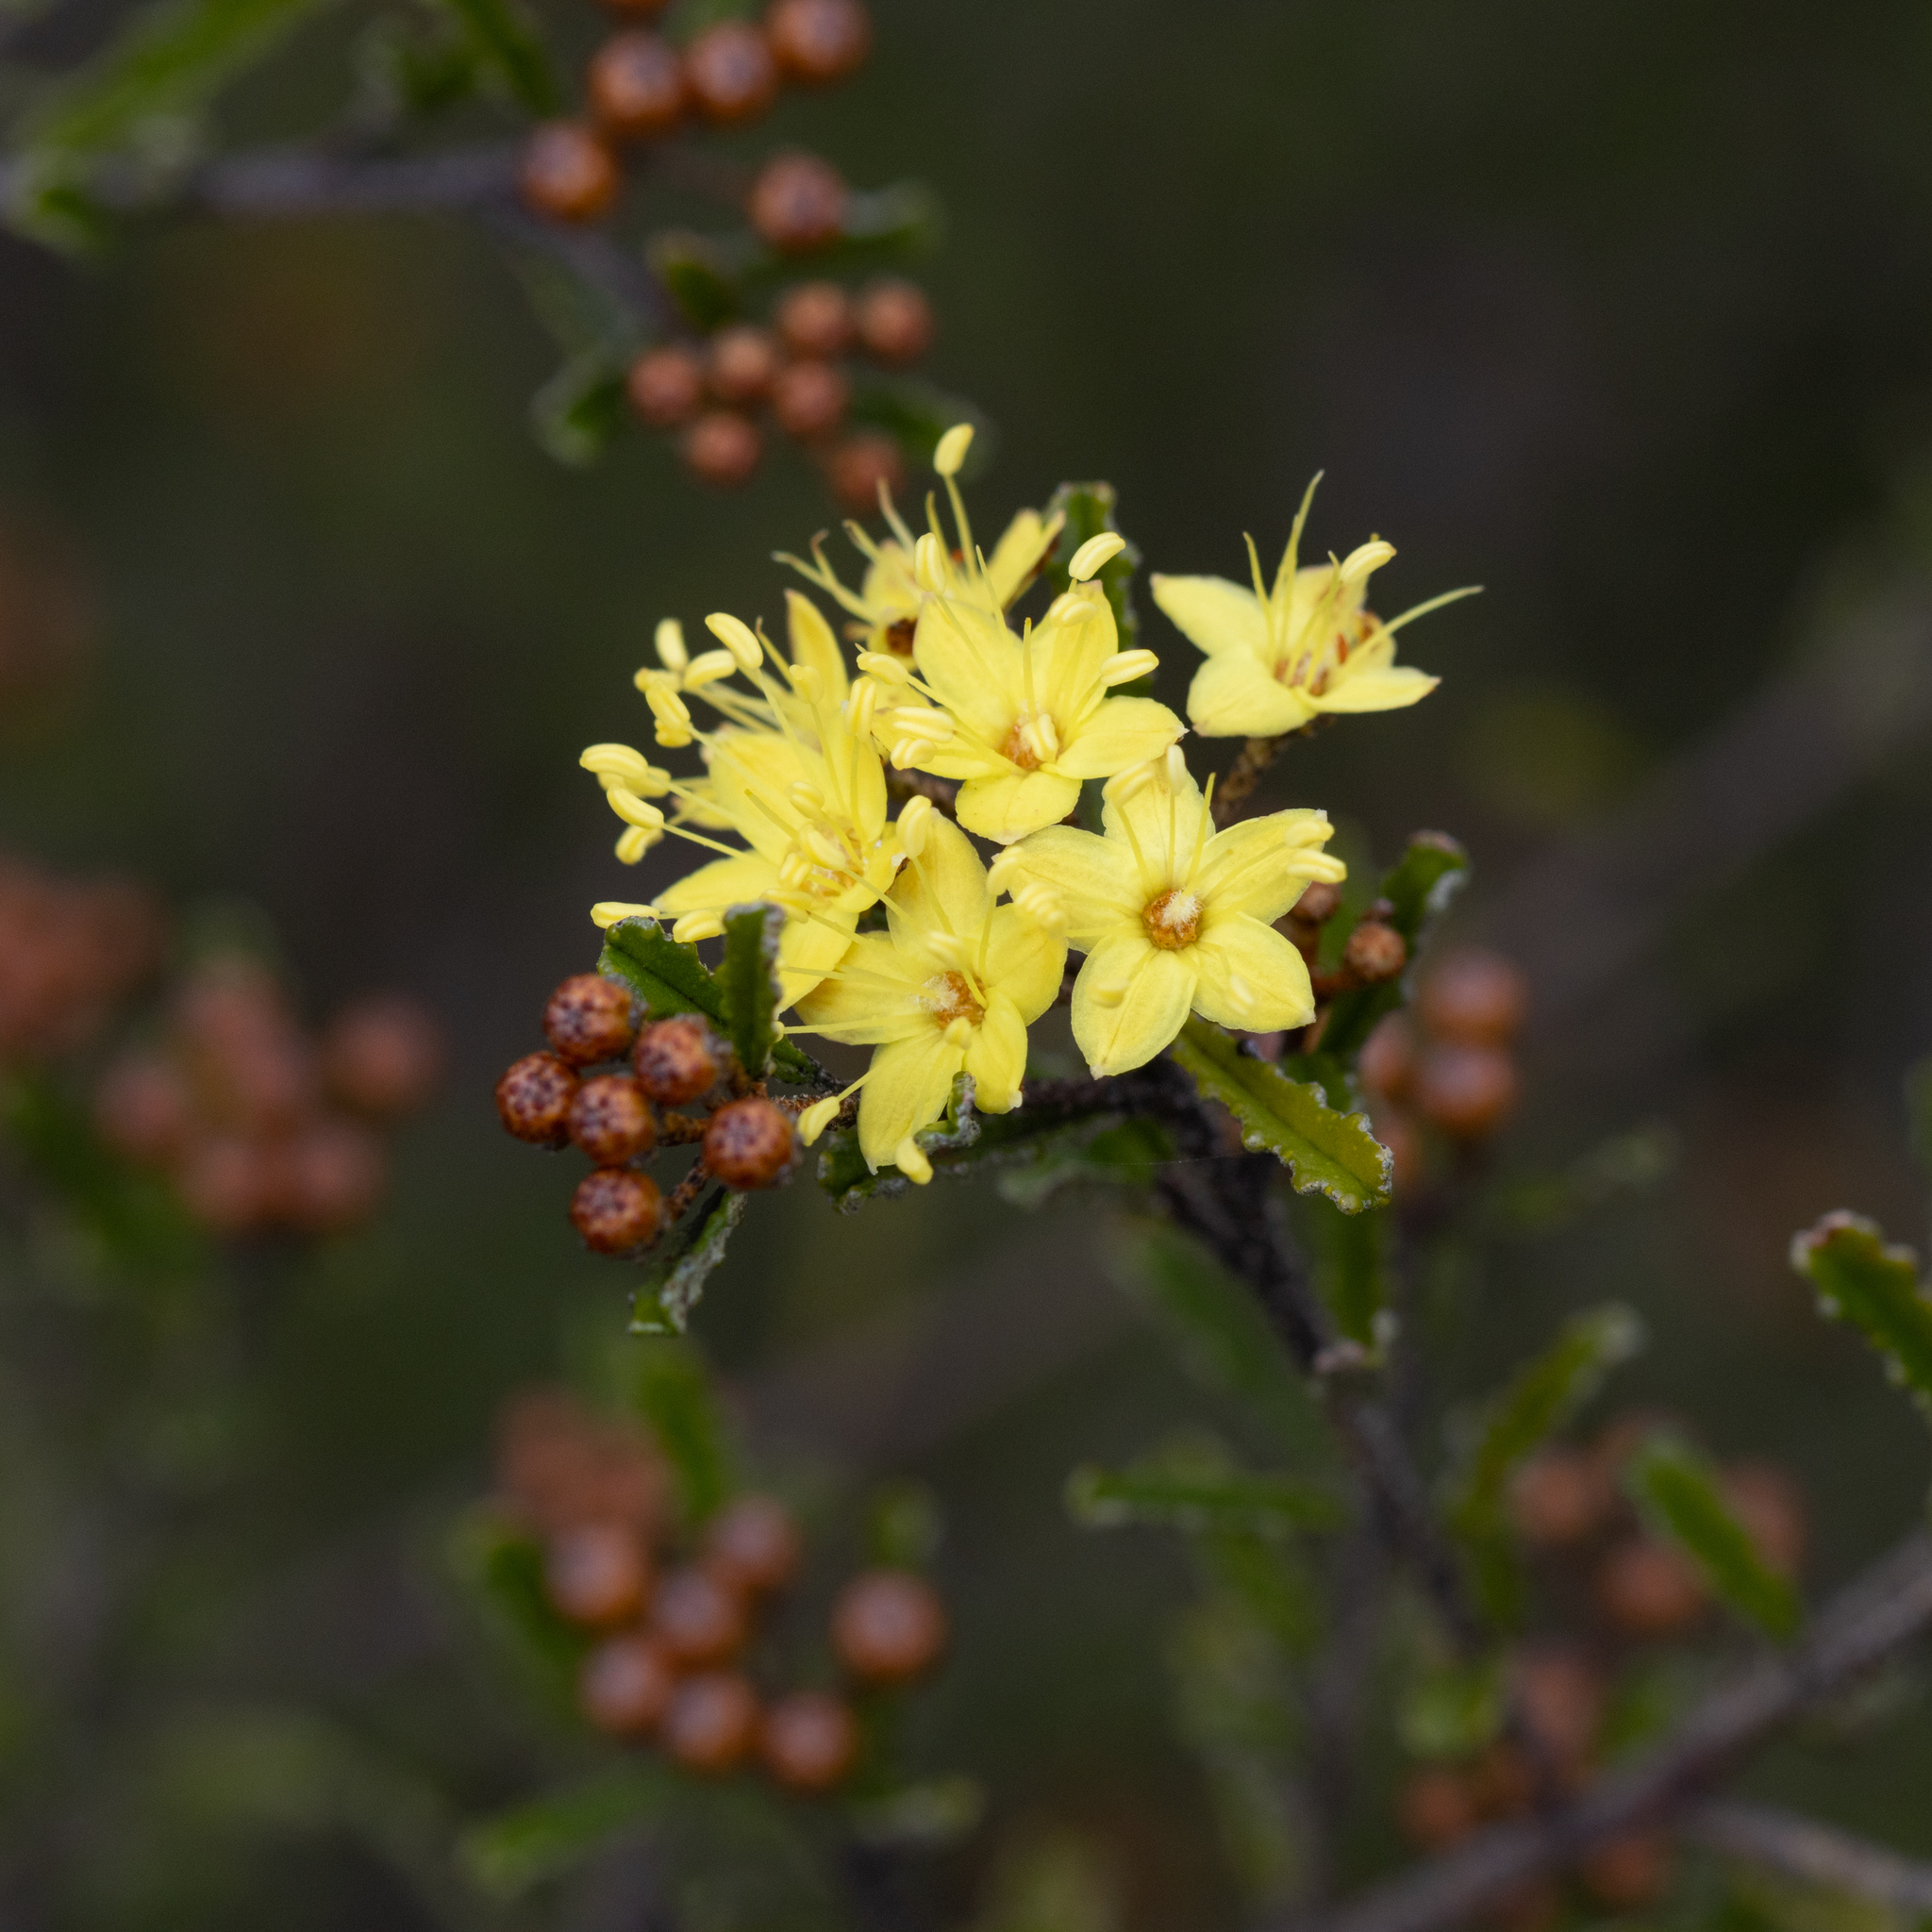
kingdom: Plantae
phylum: Tracheophyta
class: Magnoliopsida
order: Sapindales
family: Rutaceae
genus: Phebalium
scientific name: Phebalium bullatum
